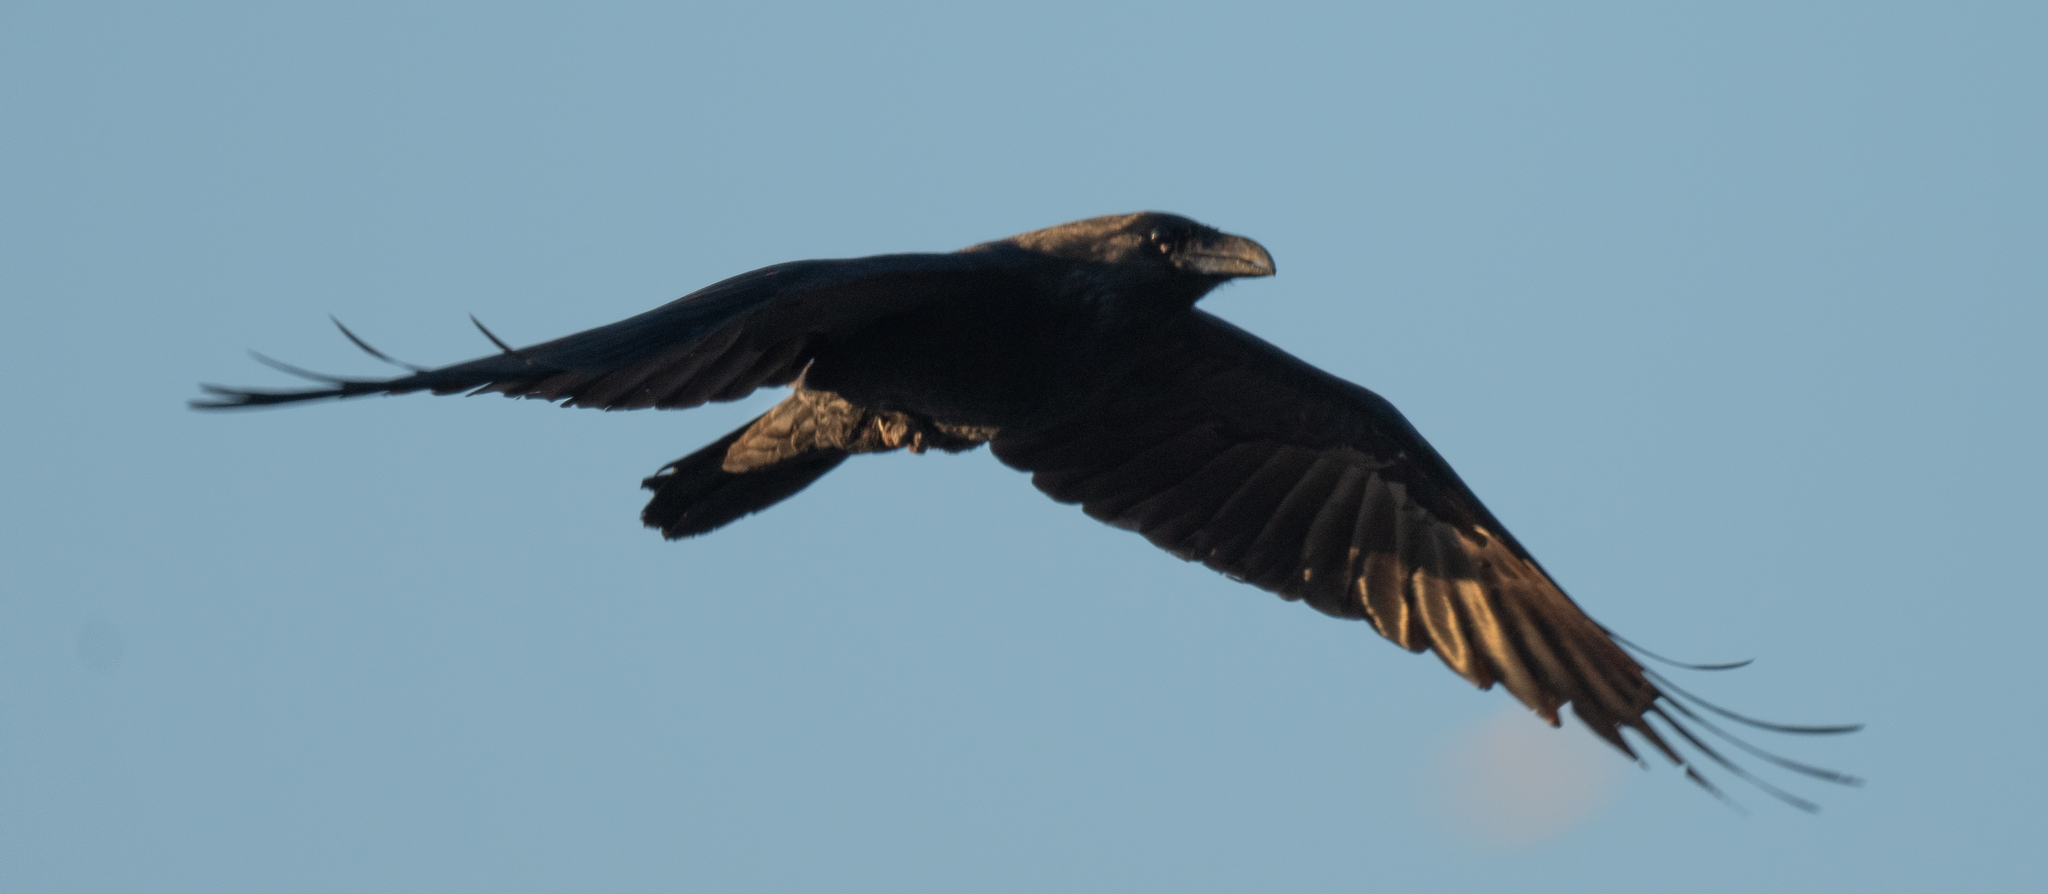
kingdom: Animalia
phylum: Chordata
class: Aves
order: Passeriformes
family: Corvidae
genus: Corvus
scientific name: Corvus corax
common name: Common raven
